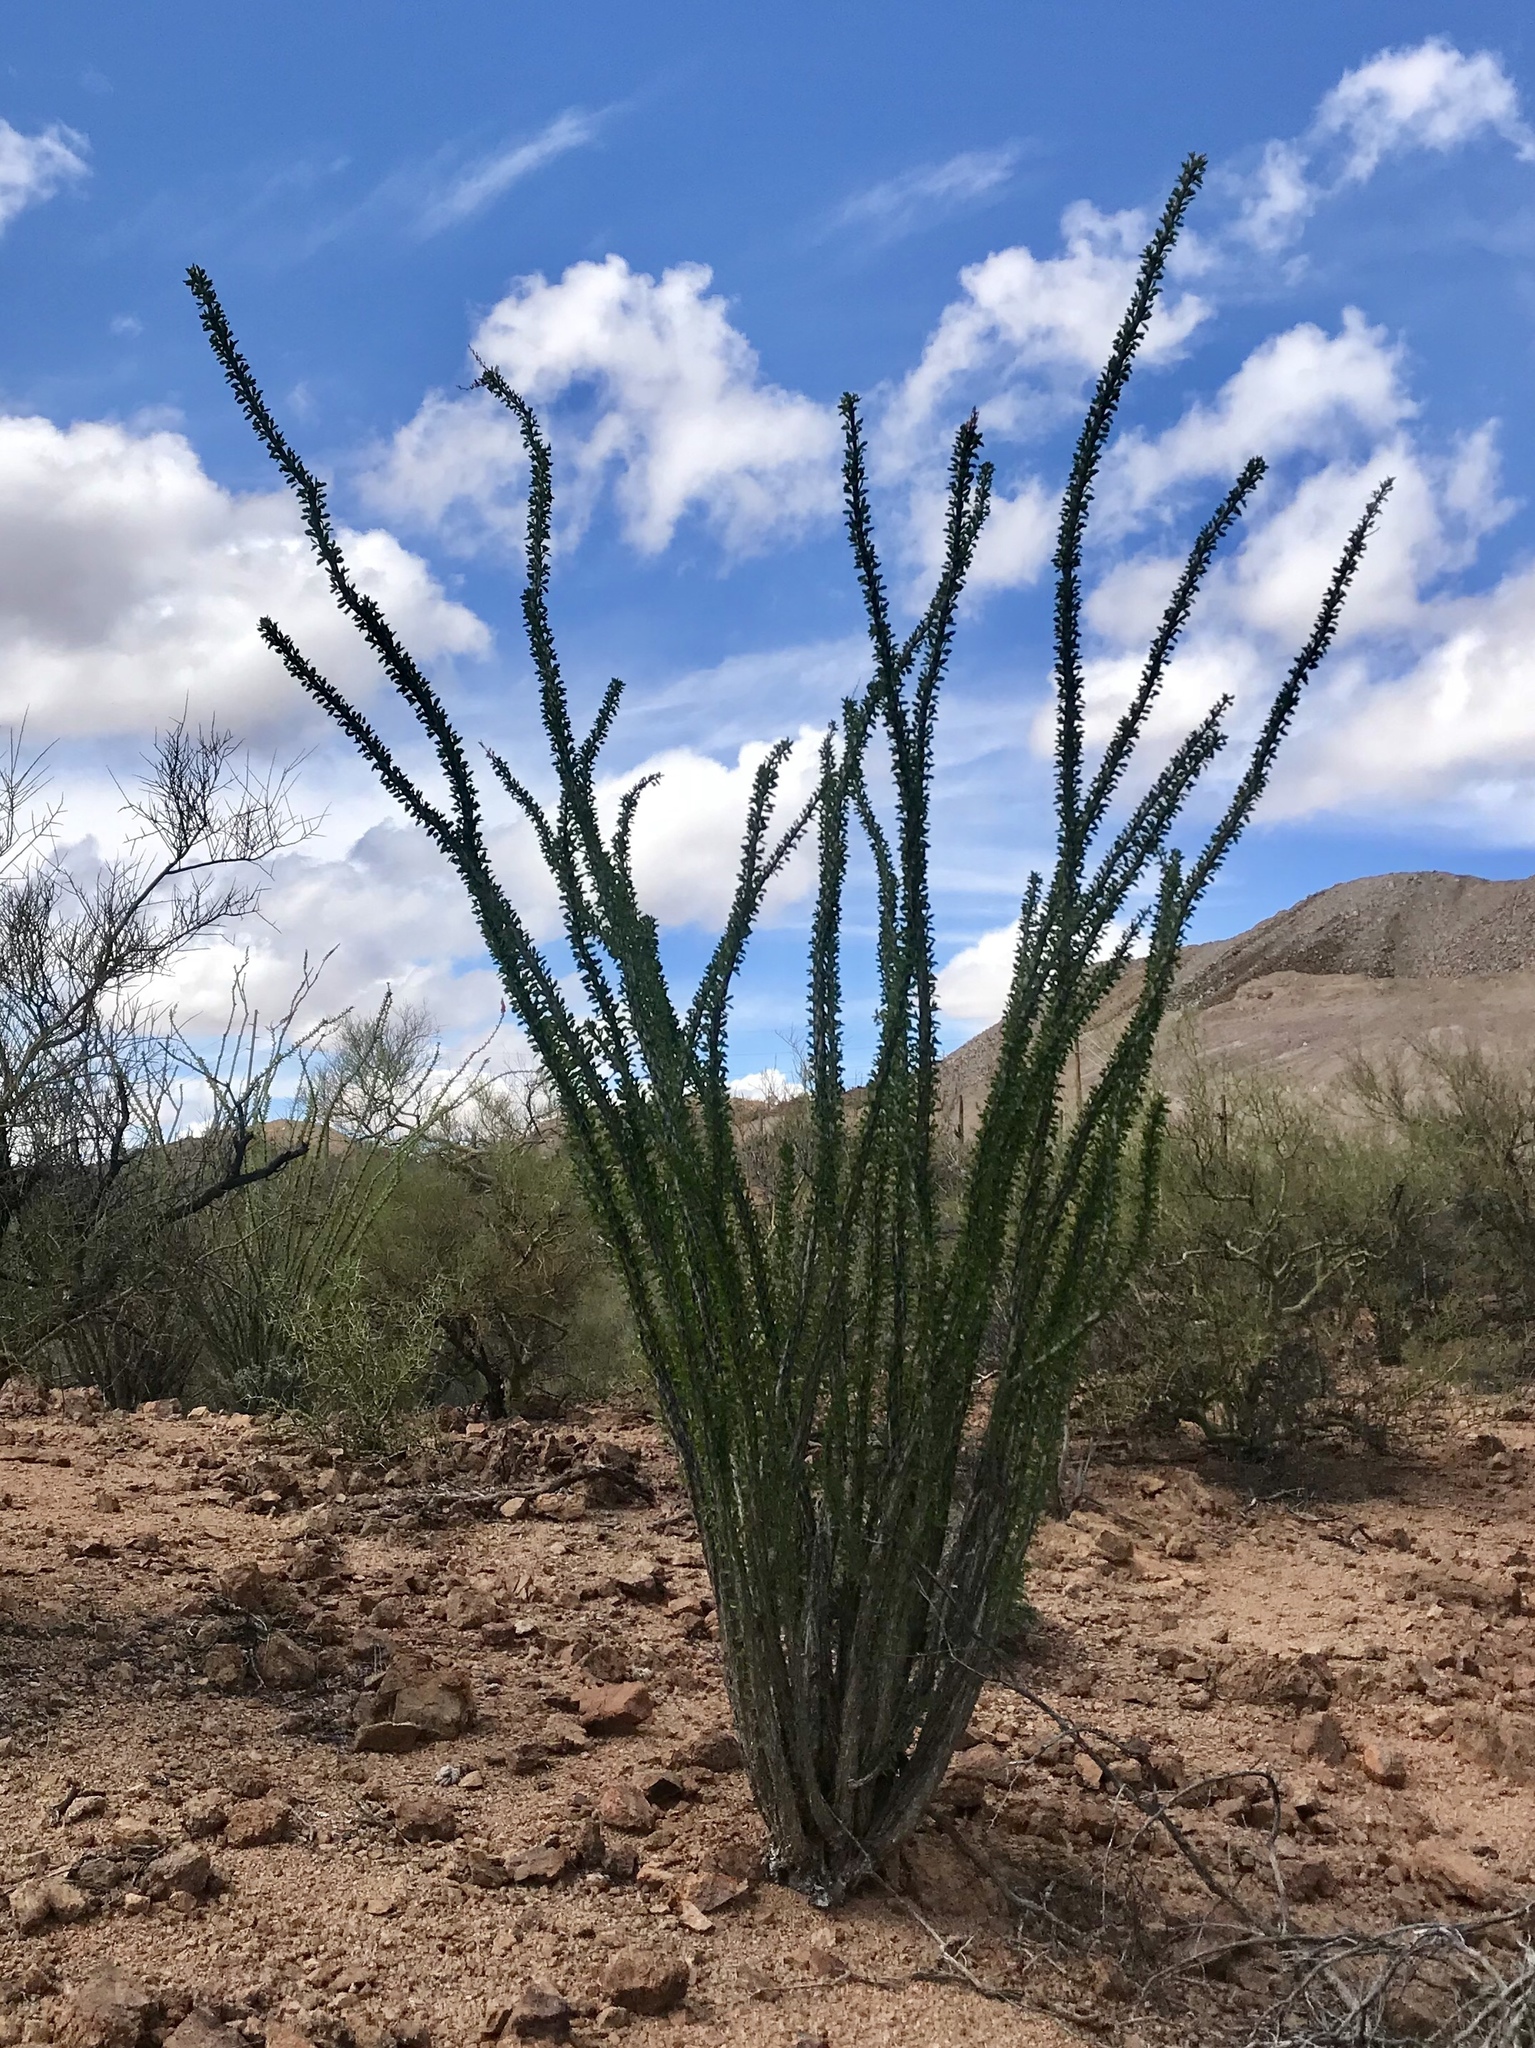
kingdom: Plantae
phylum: Tracheophyta
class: Magnoliopsida
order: Ericales
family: Fouquieriaceae
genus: Fouquieria
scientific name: Fouquieria splendens
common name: Vine-cactus
